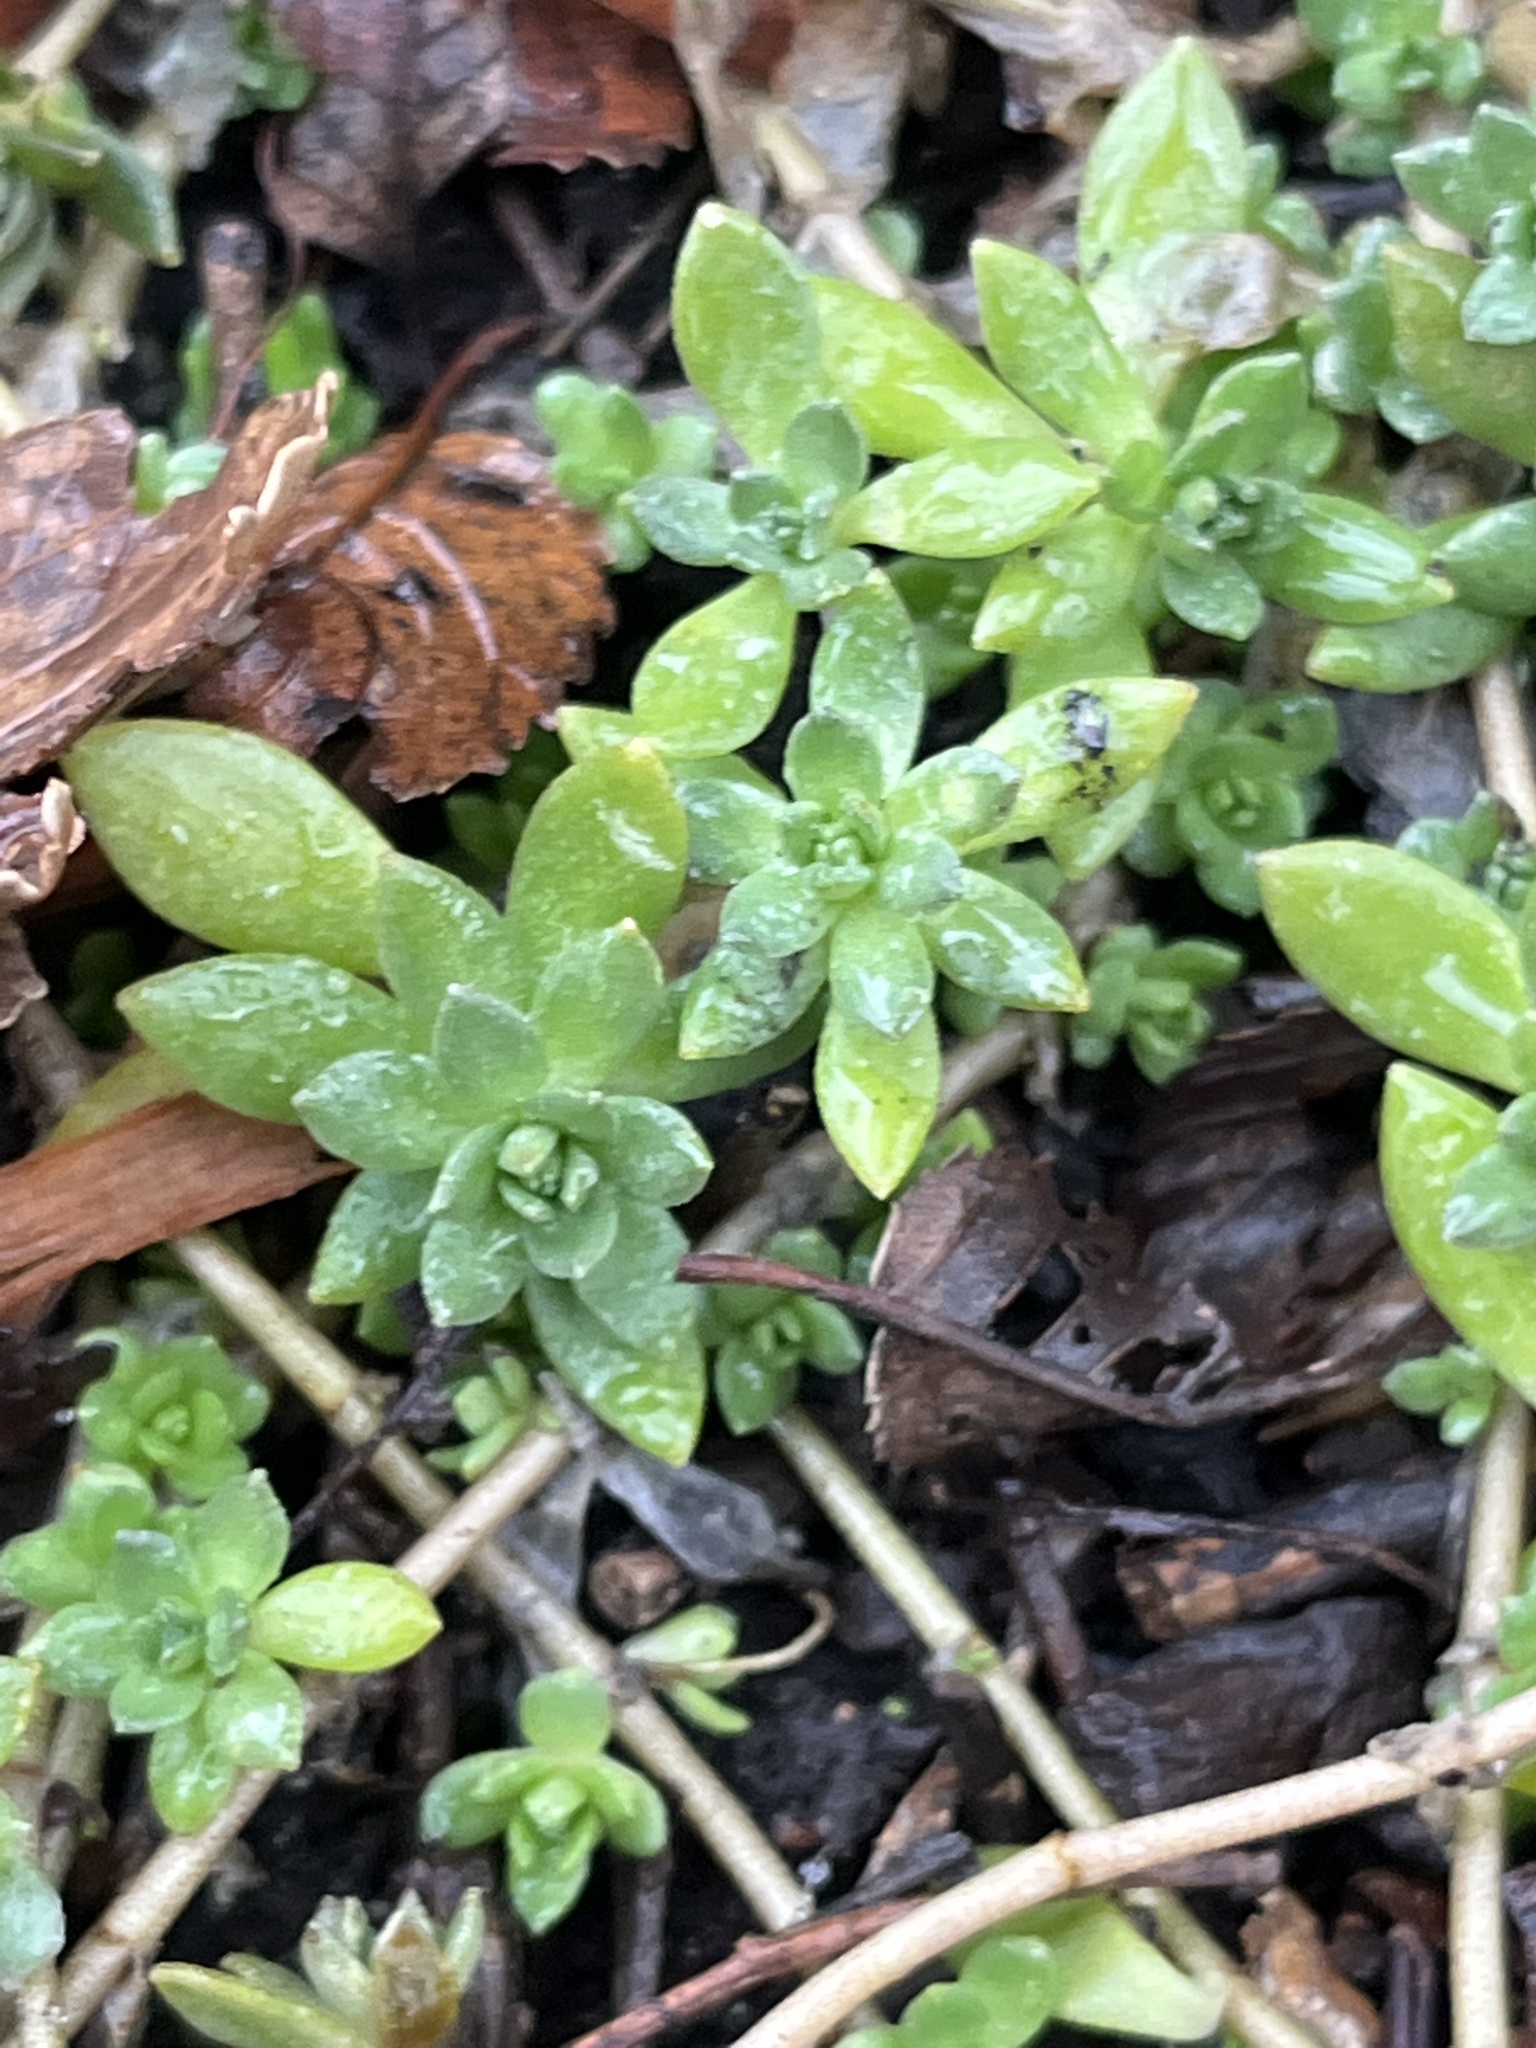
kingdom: Plantae
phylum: Tracheophyta
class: Magnoliopsida
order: Saxifragales
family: Crassulaceae
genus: Sedum
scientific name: Sedum sarmentosum
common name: Stringy stonecrop
